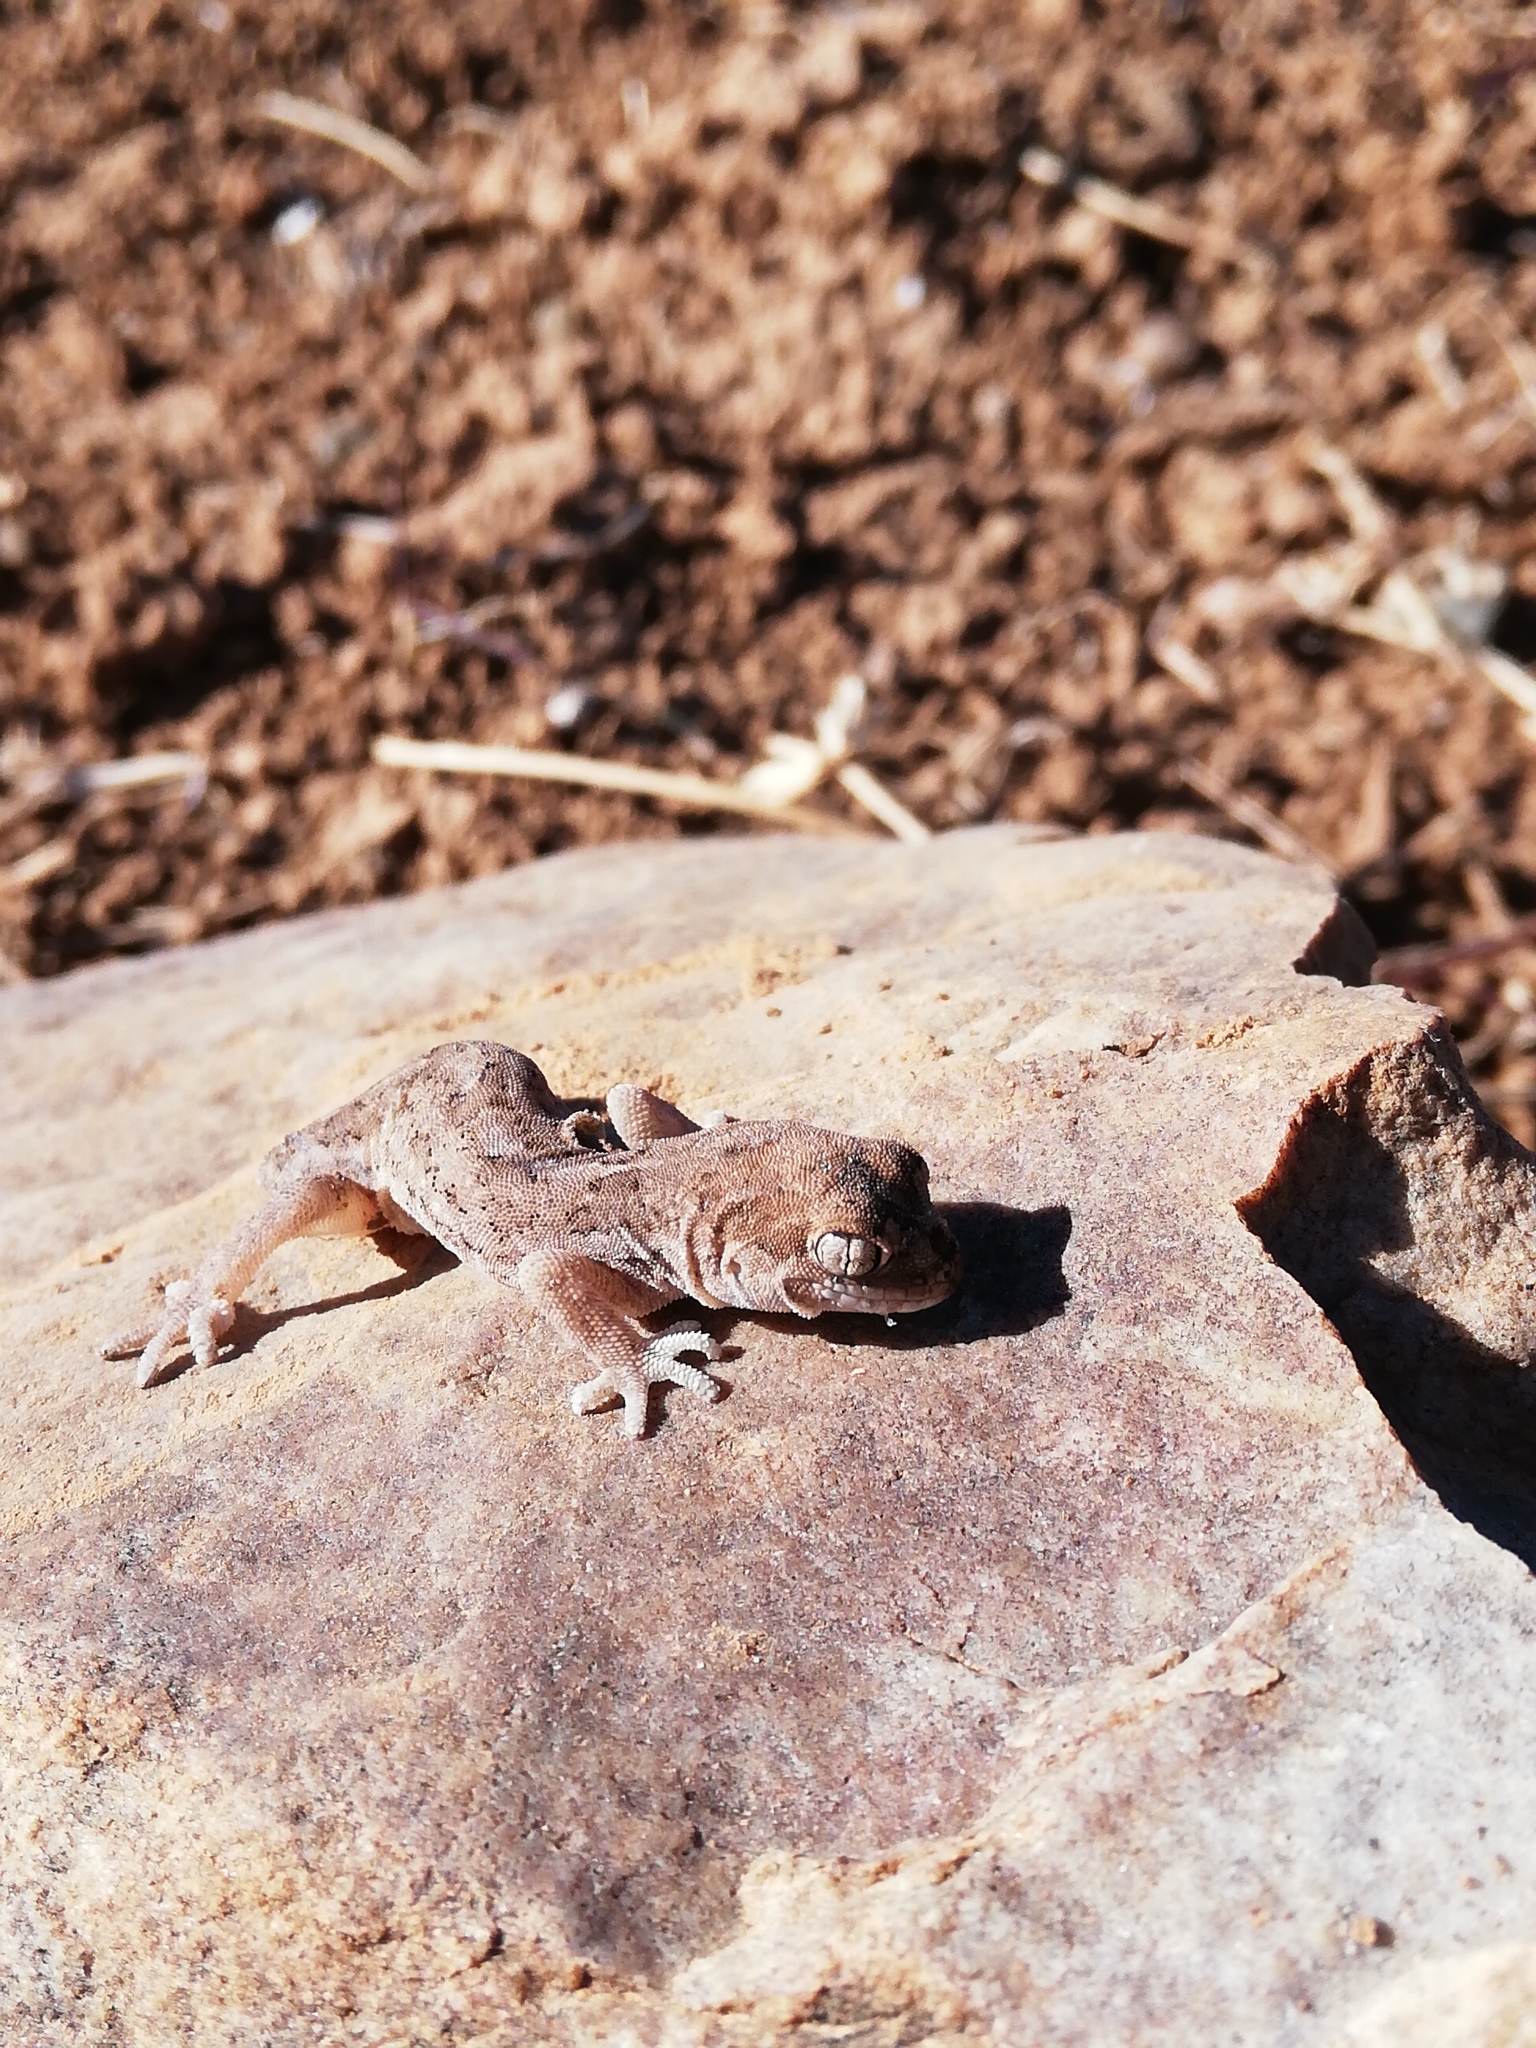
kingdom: Animalia
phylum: Chordata
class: Squamata
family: Gekkonidae
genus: Pachydactylus
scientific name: Pachydactylus mariquensis
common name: Common banded gecko
